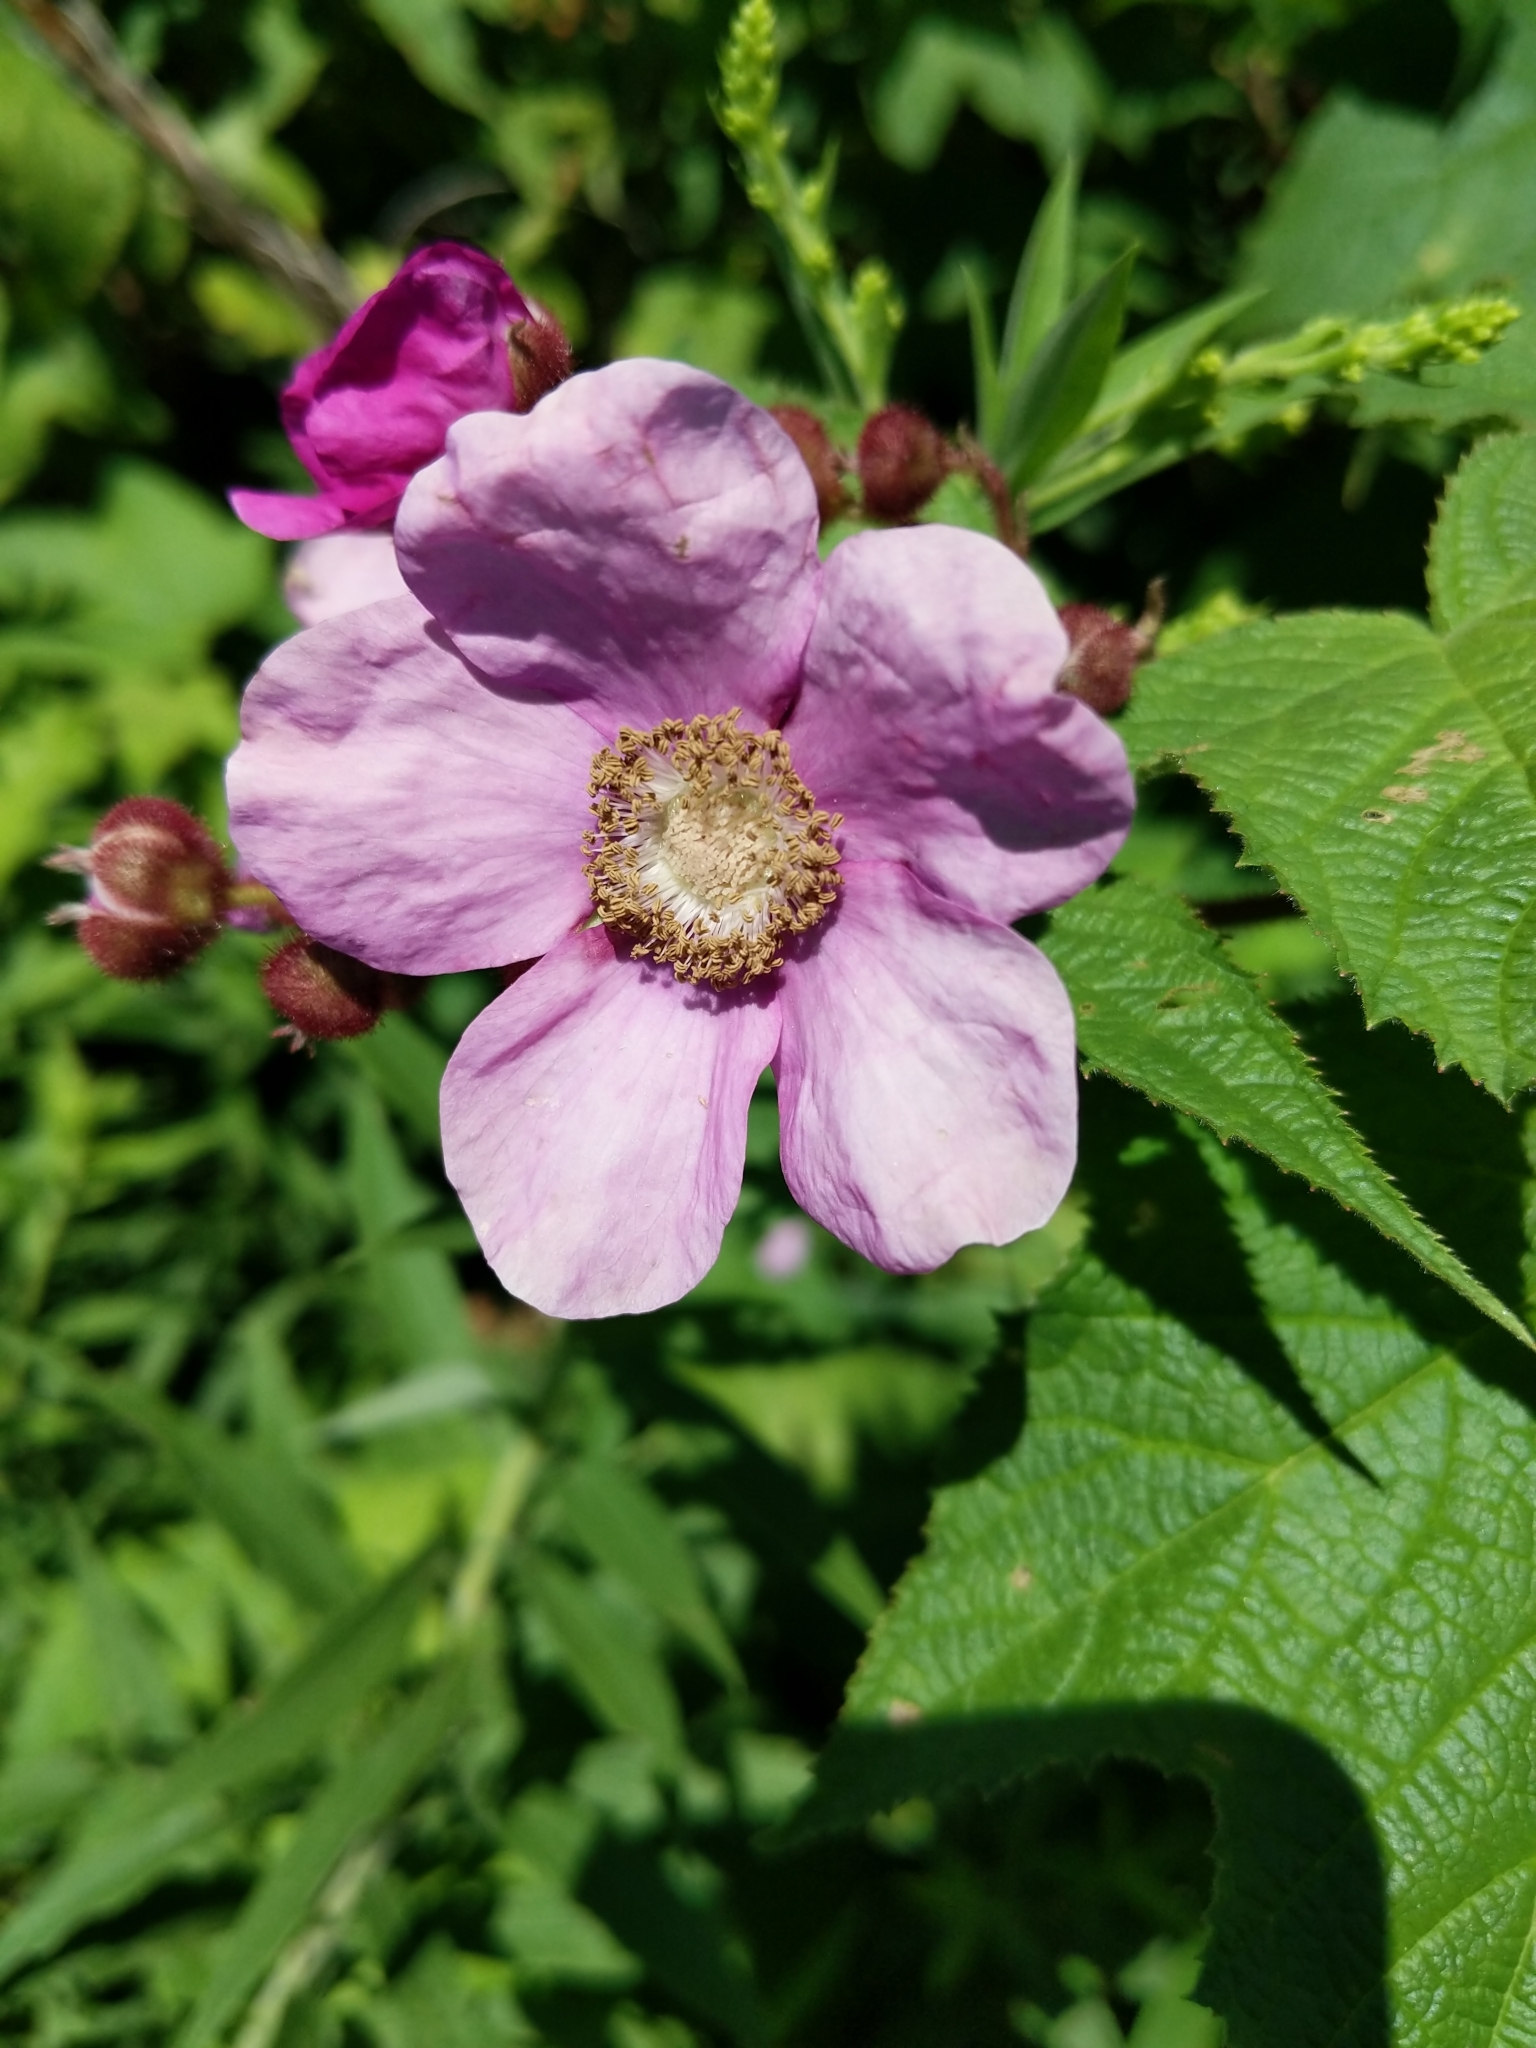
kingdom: Plantae
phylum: Tracheophyta
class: Magnoliopsida
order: Rosales
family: Rosaceae
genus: Rubus
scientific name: Rubus odoratus
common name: Purple-flowered raspberry
